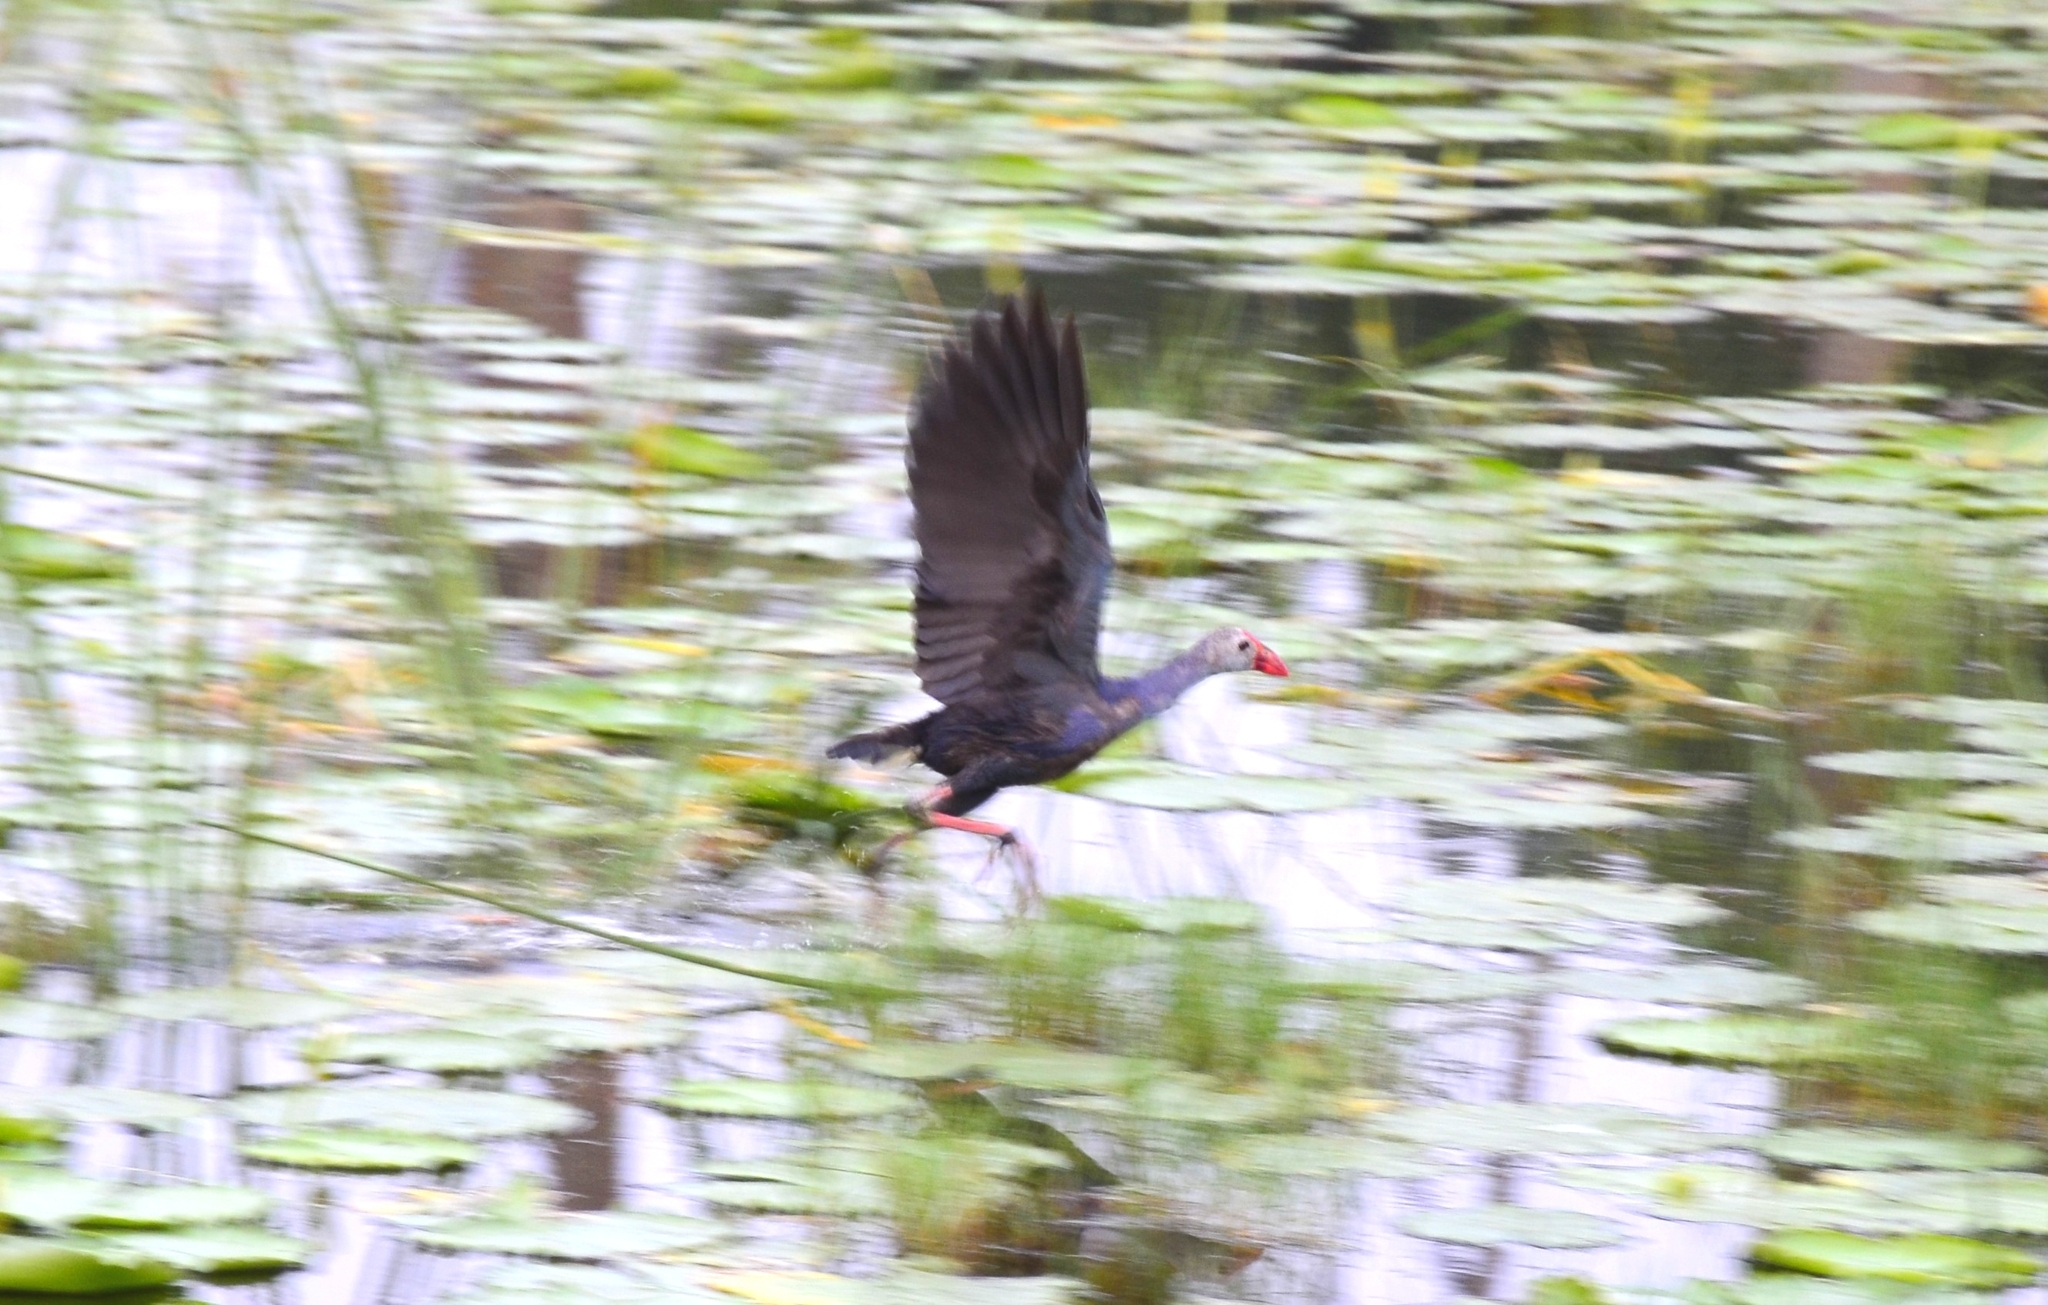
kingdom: Animalia
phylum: Chordata
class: Aves
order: Gruiformes
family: Rallidae
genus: Porphyrio
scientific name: Porphyrio porphyrio
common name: Purple swamphen
